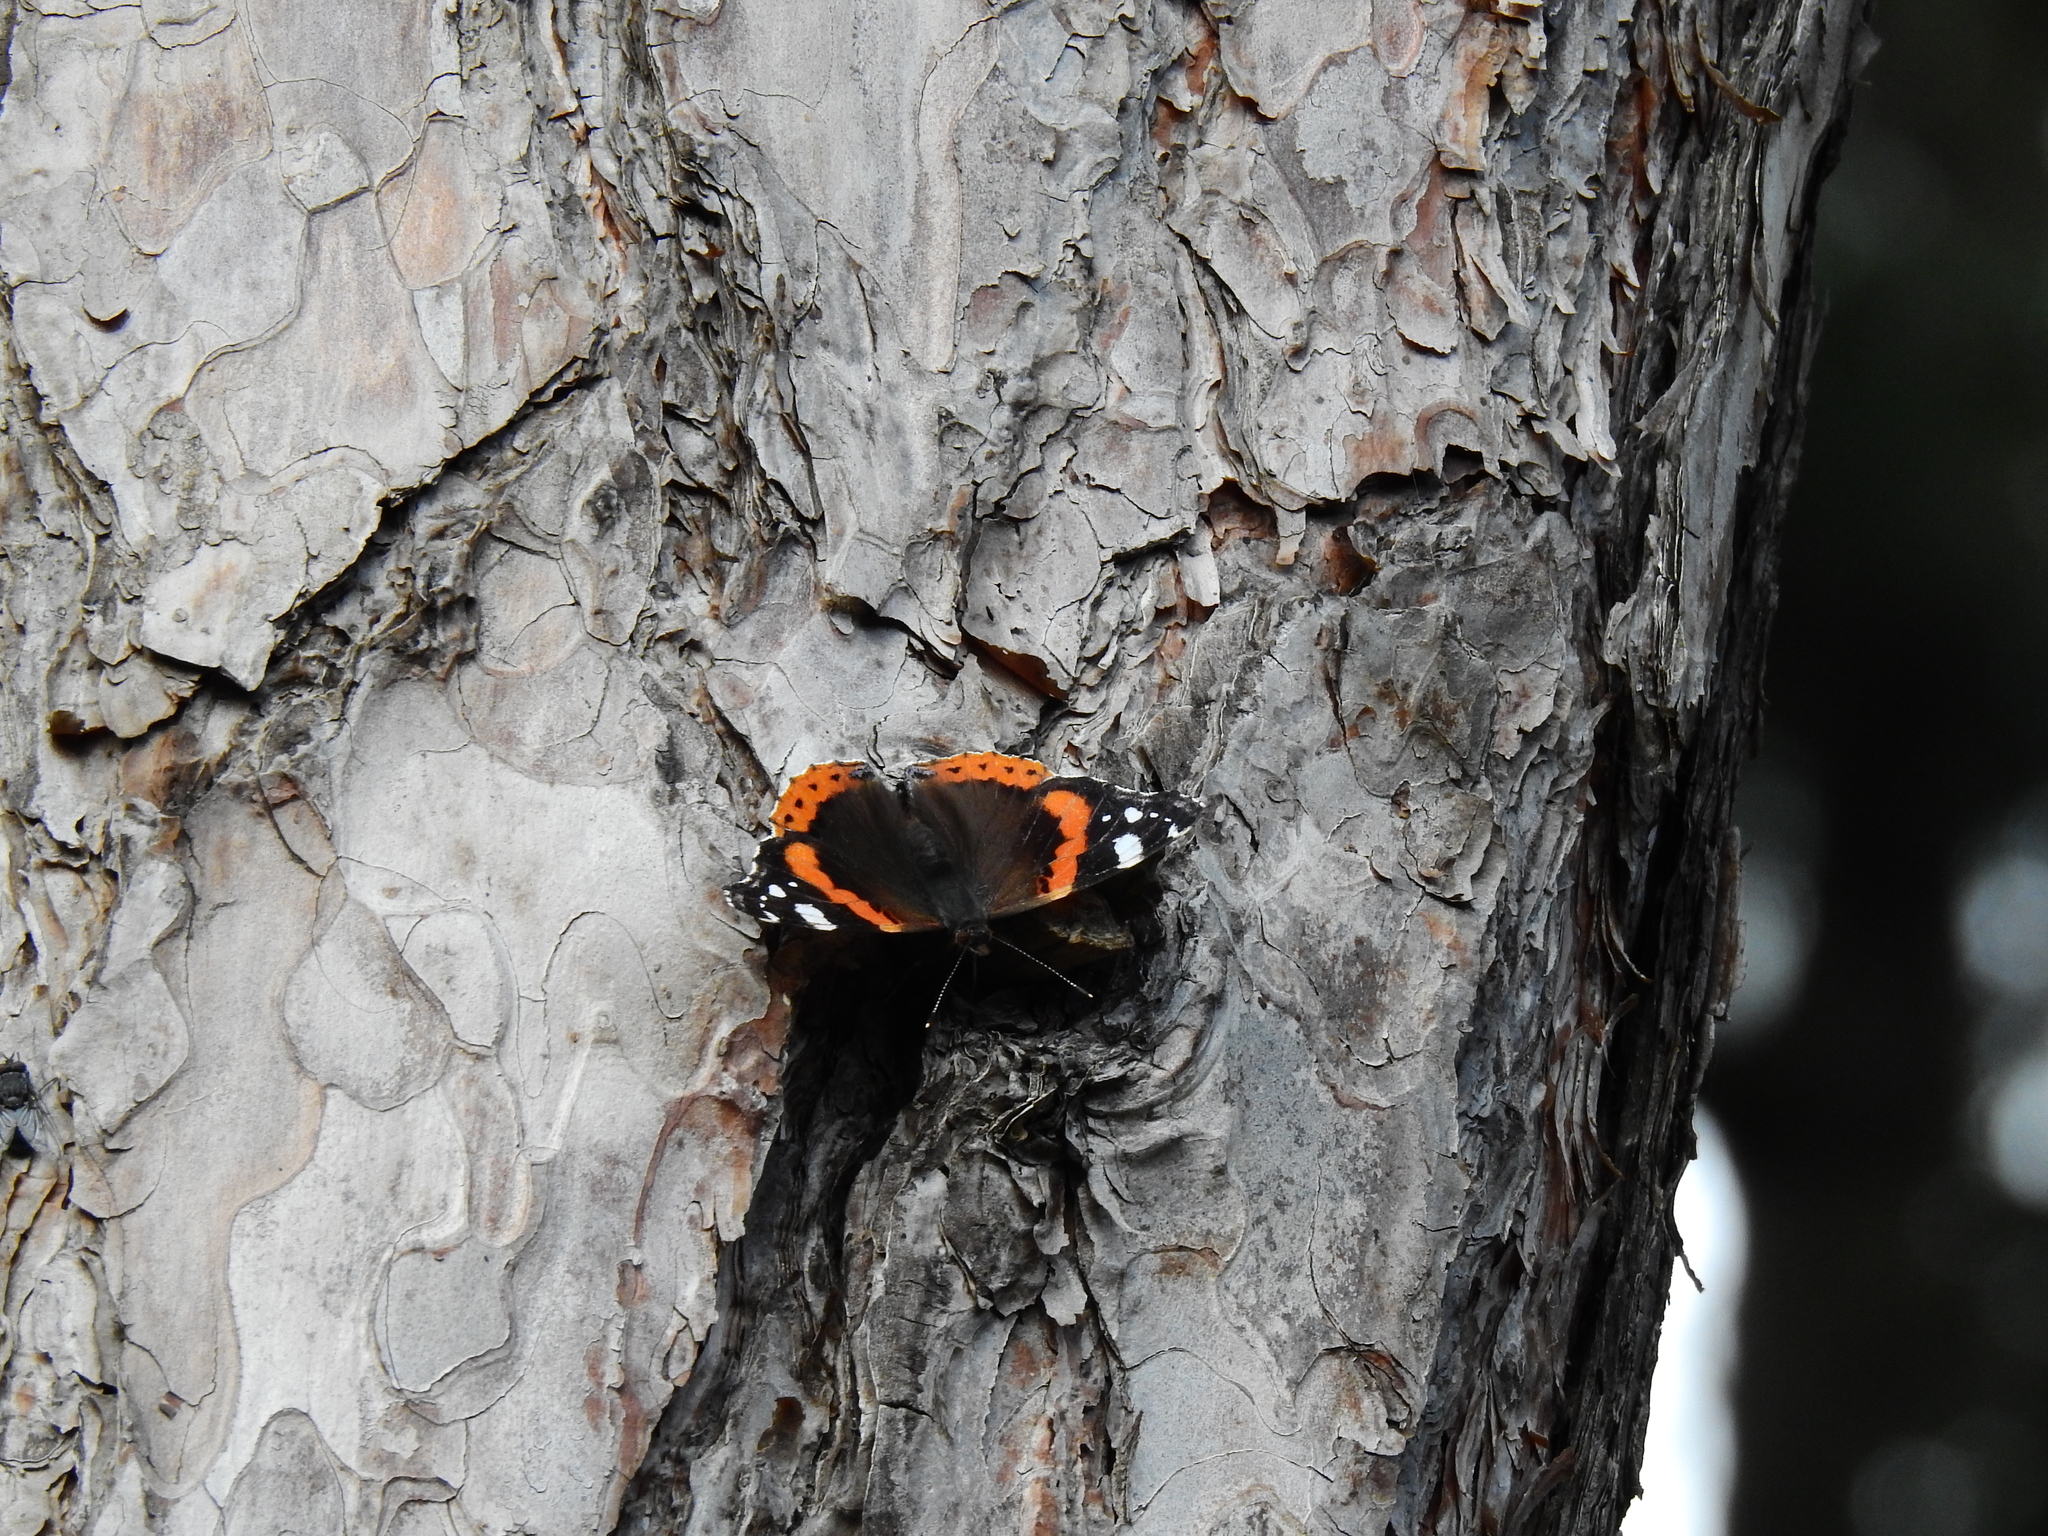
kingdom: Animalia
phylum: Arthropoda
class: Insecta
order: Lepidoptera
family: Nymphalidae
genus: Vanessa
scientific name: Vanessa atalanta
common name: Red admiral
